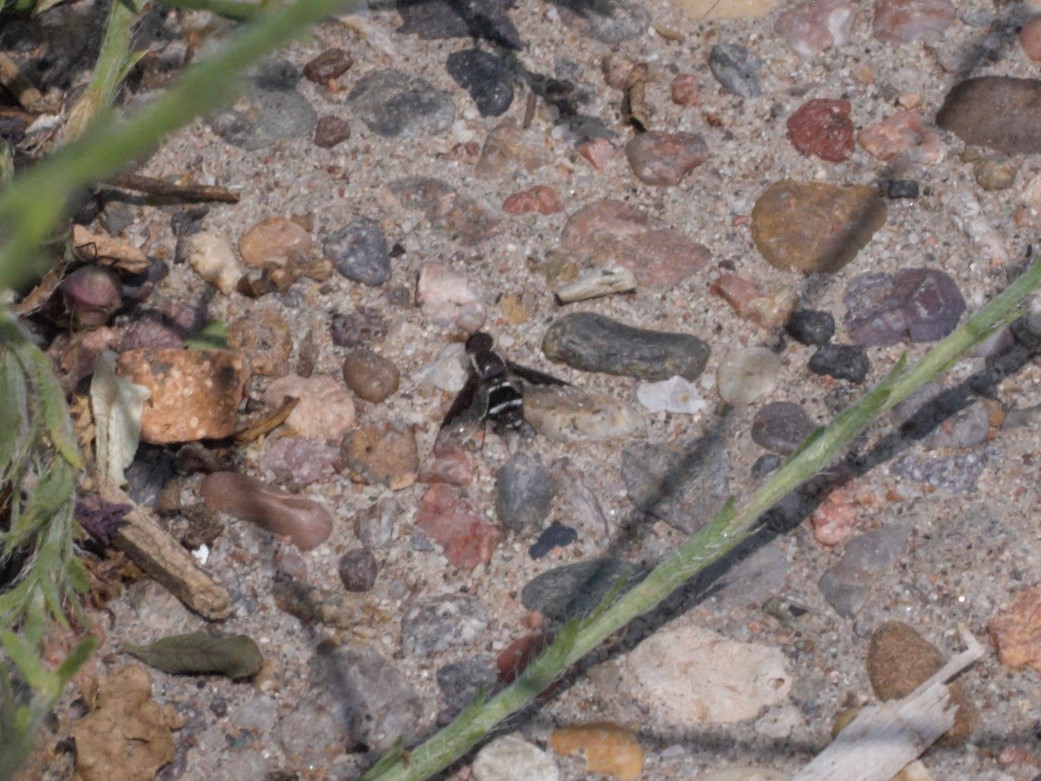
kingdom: Animalia
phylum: Arthropoda
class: Insecta
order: Diptera
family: Bombyliidae
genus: Hemipenthes
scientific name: Hemipenthes lepidotus
